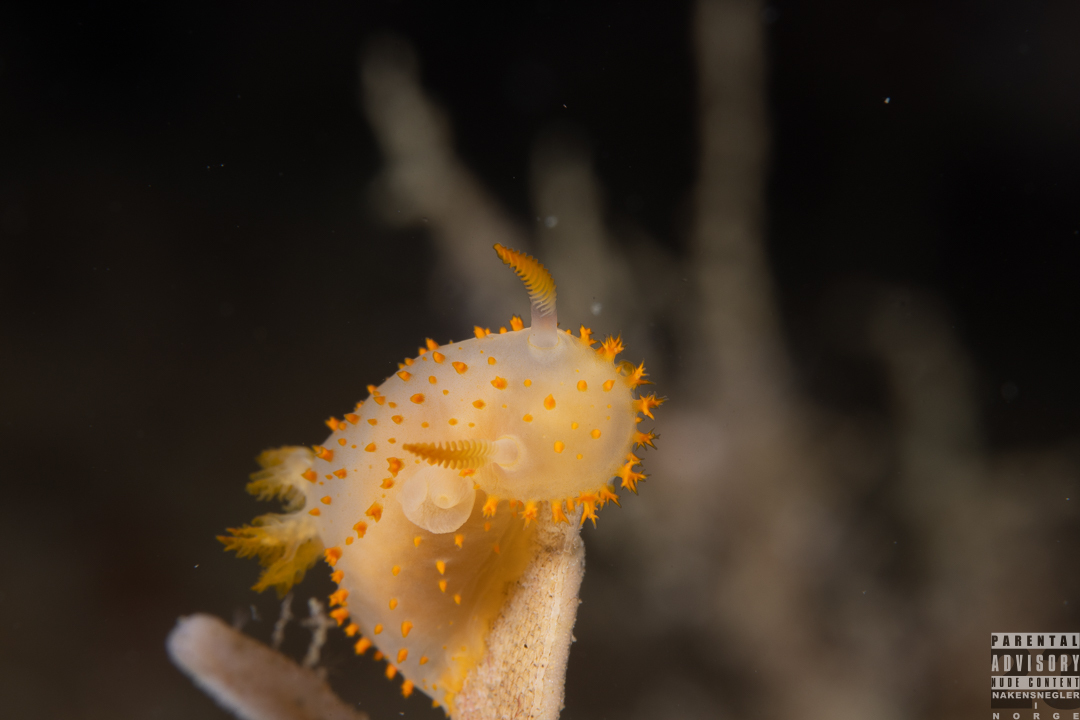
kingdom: Animalia
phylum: Mollusca
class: Gastropoda
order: Nudibranchia
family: Polyceridae
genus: Crimora
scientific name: Crimora papillata
